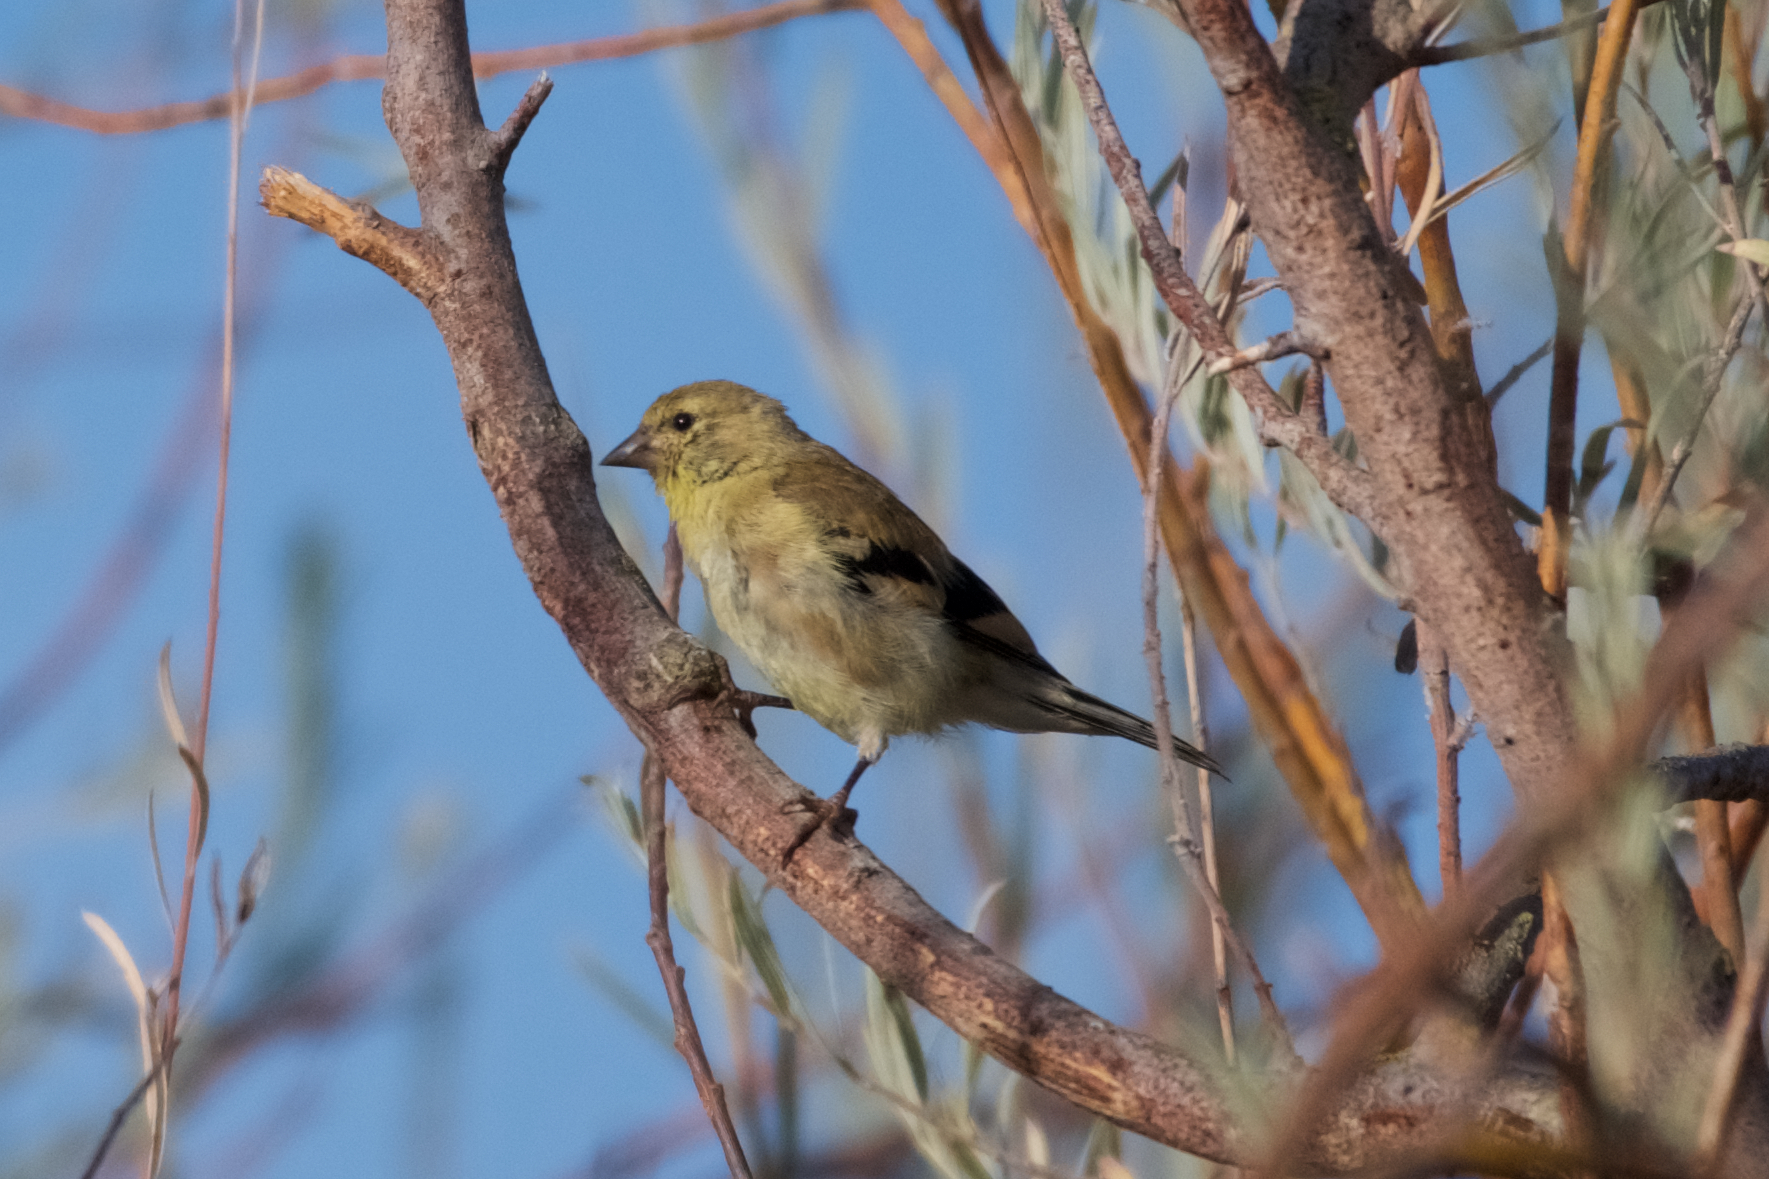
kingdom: Animalia
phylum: Chordata
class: Aves
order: Passeriformes
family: Fringillidae
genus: Spinus
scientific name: Spinus tristis
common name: American goldfinch
